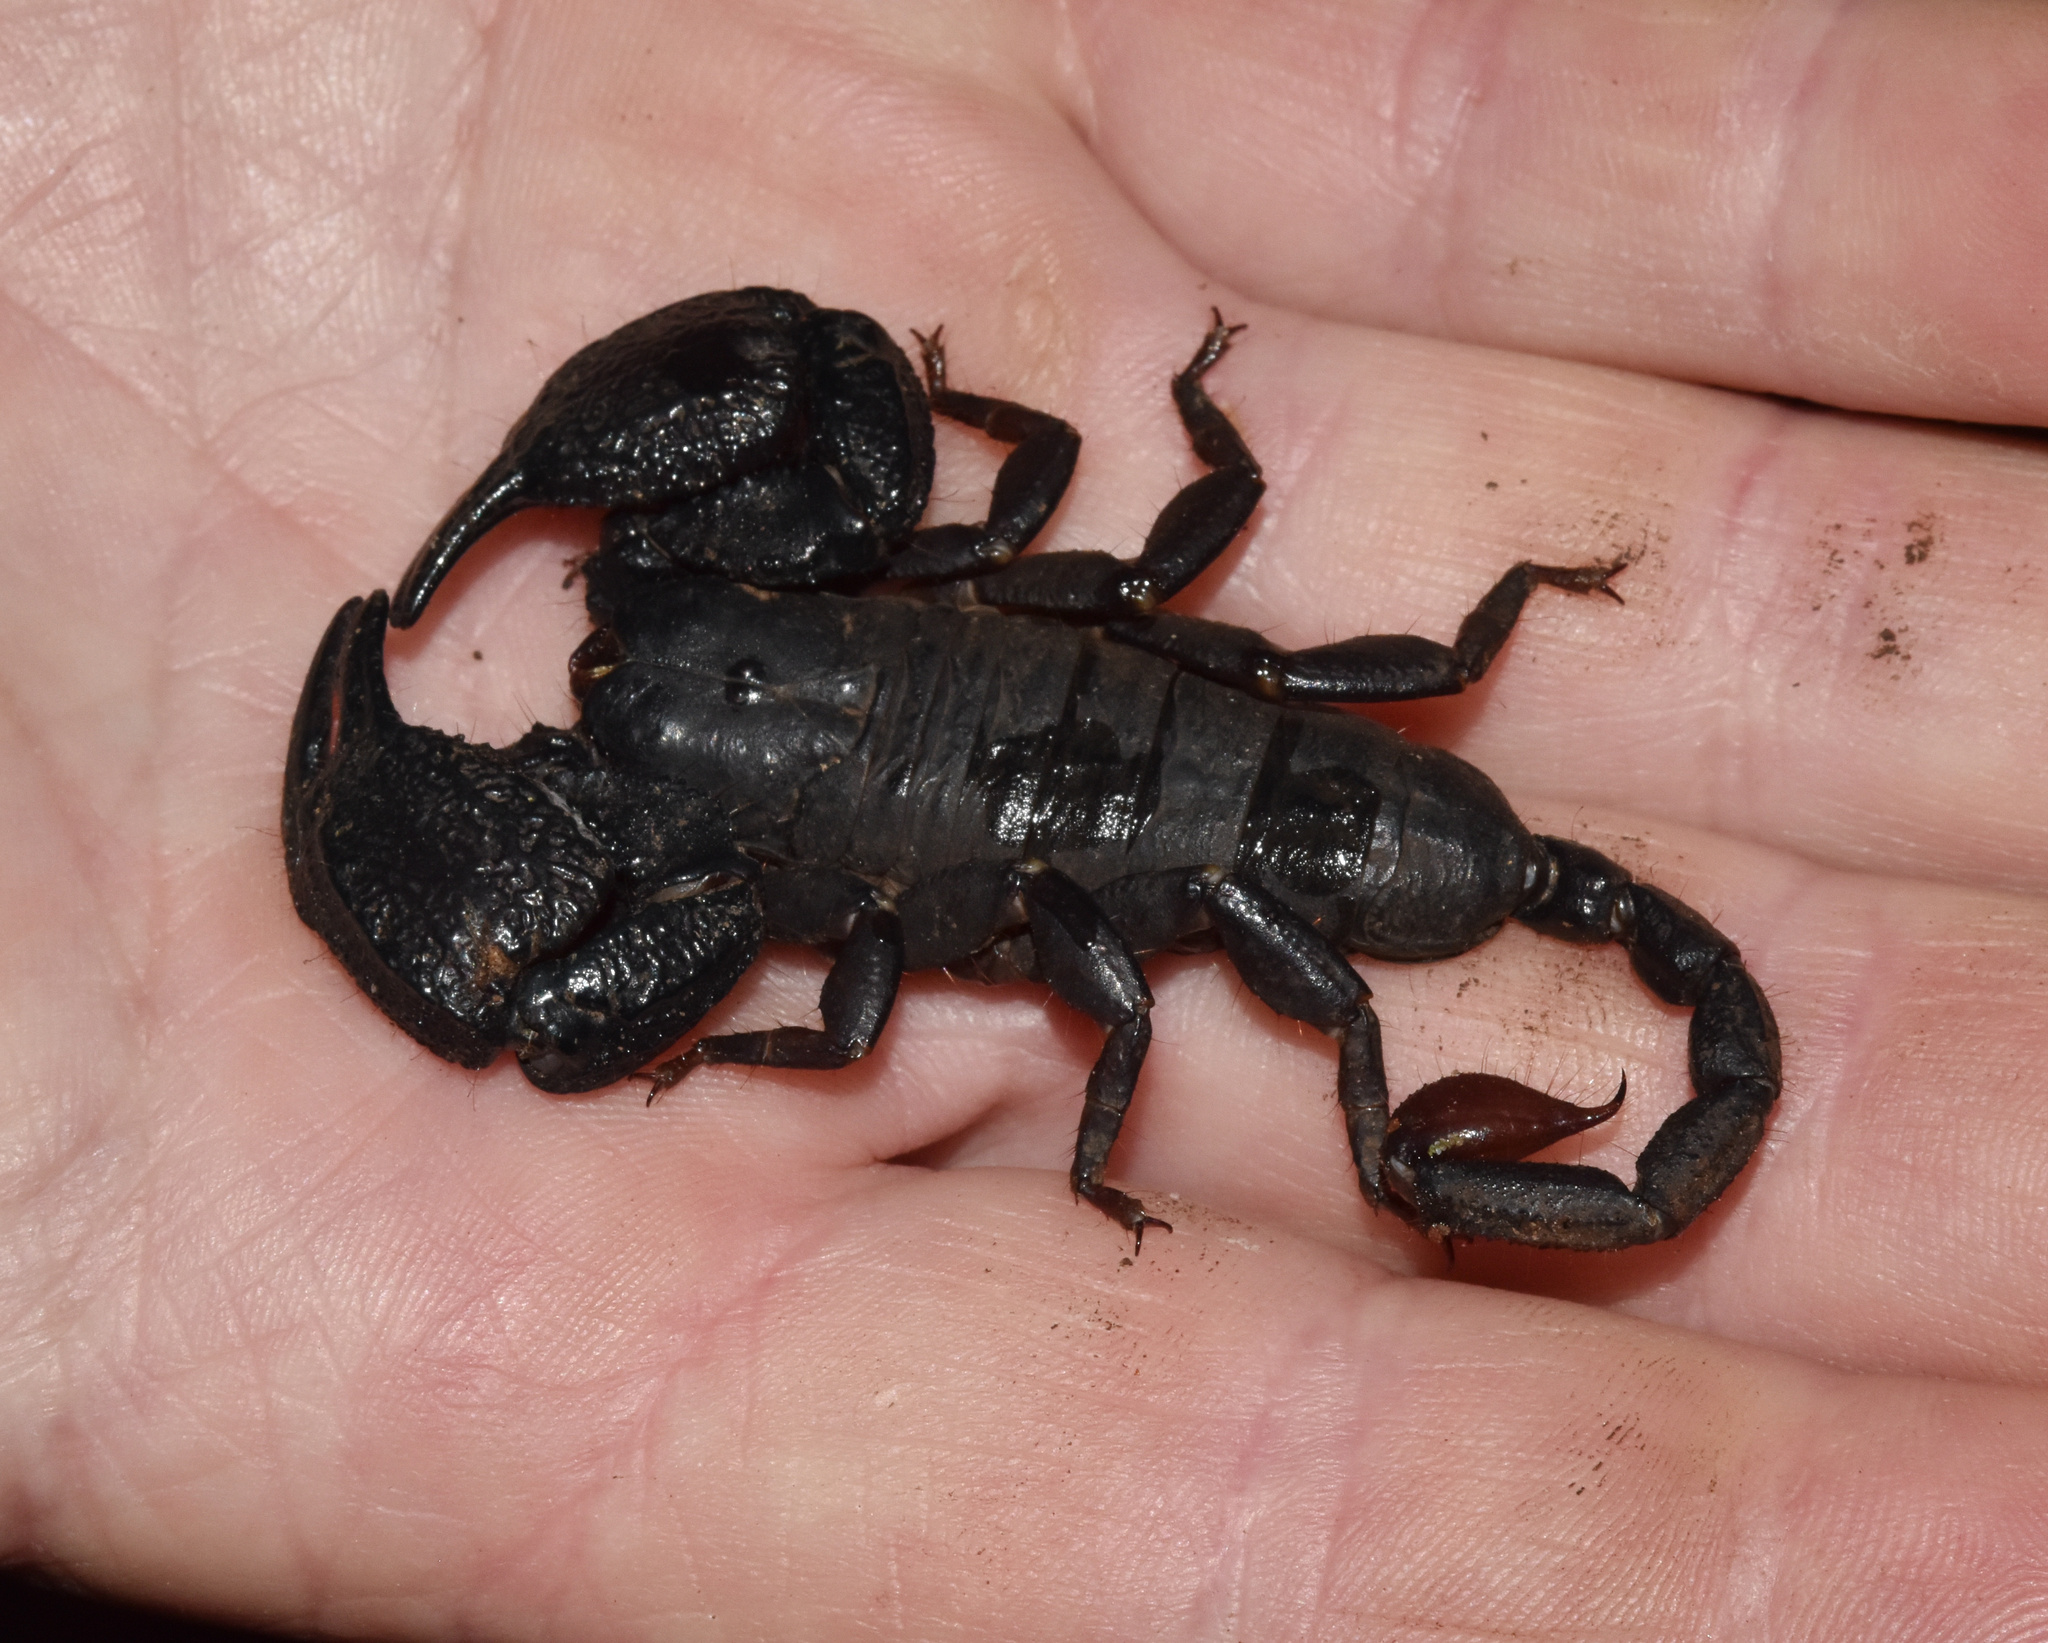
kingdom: Animalia
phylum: Arthropoda
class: Arachnida
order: Scorpiones
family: Hormuridae
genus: Opisthacanthus
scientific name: Opisthacanthus validus
